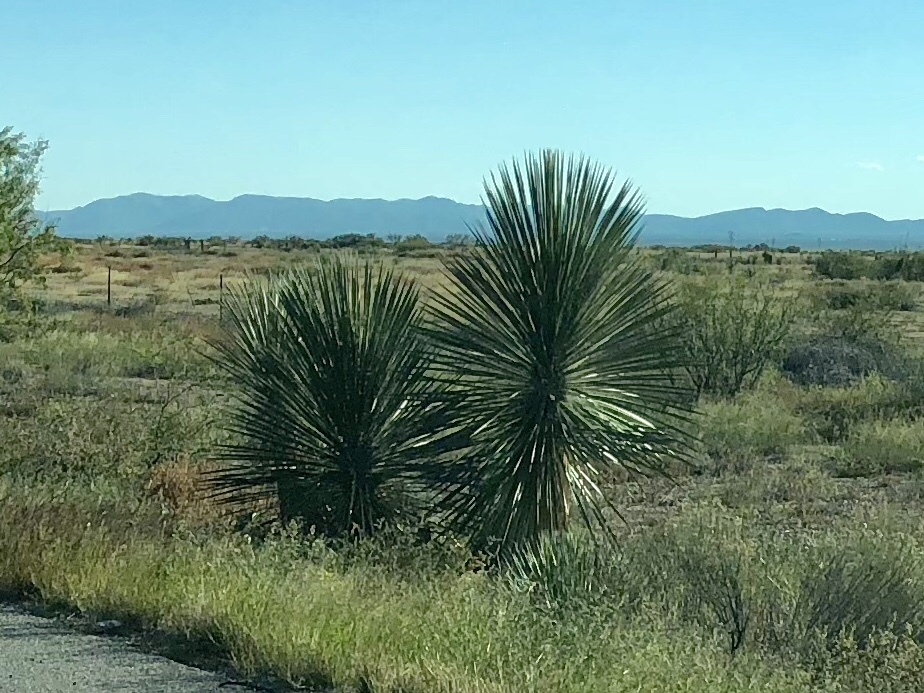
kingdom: Plantae
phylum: Tracheophyta
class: Liliopsida
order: Asparagales
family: Asparagaceae
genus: Yucca
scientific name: Yucca elata
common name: Palmella
